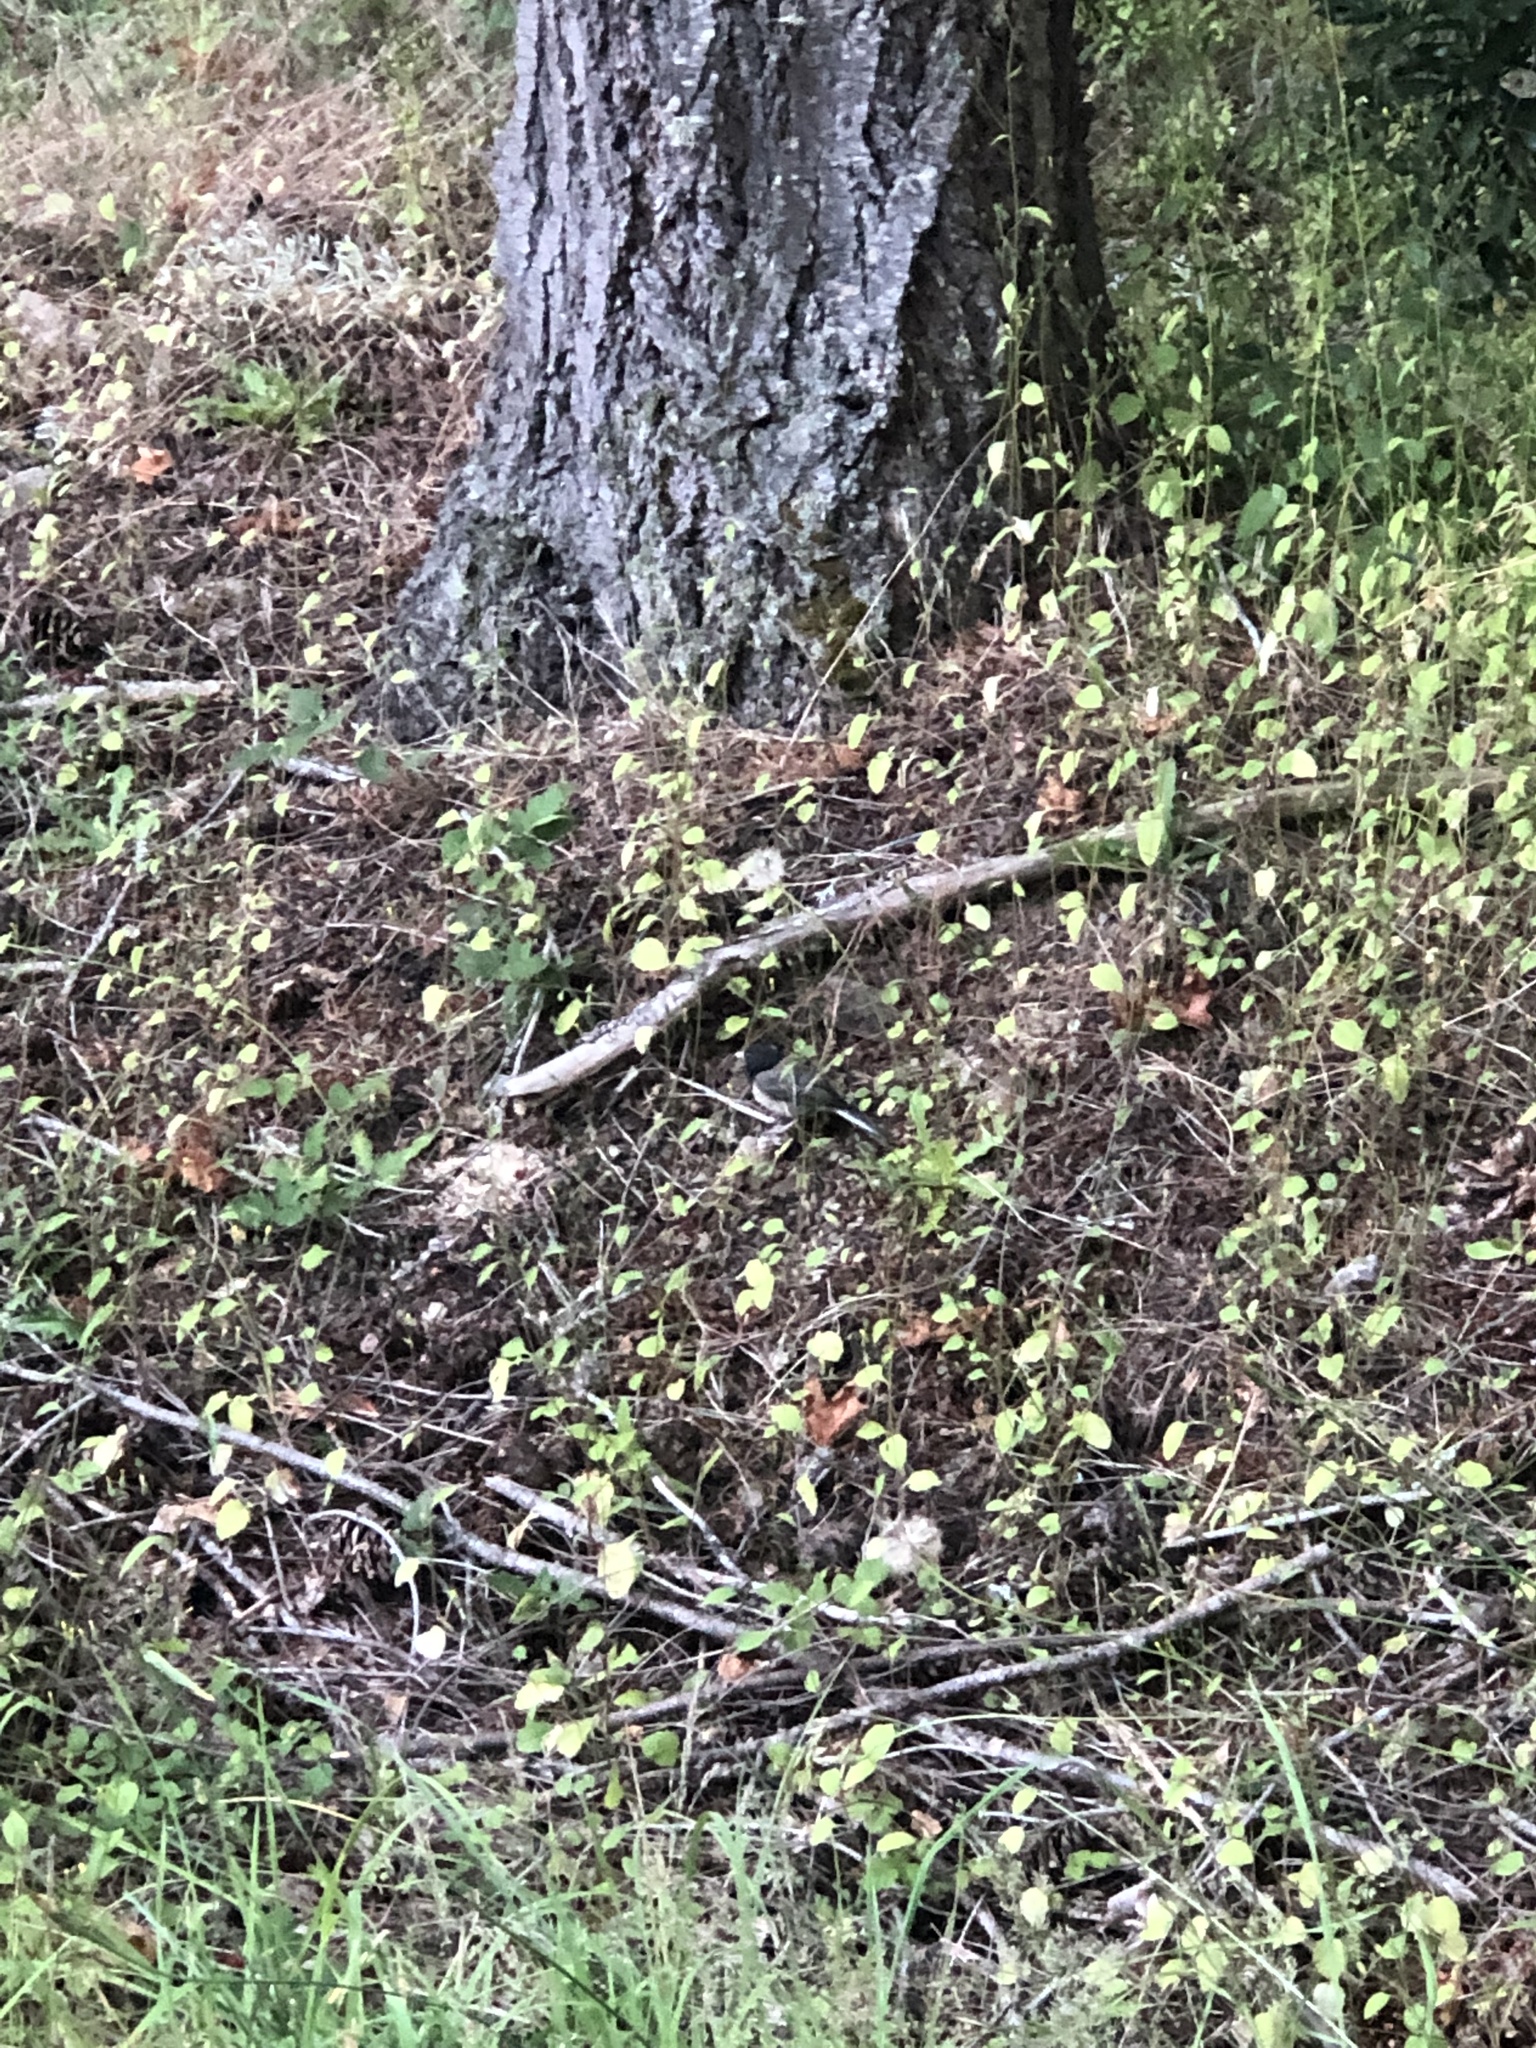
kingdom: Animalia
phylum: Chordata
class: Aves
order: Passeriformes
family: Passerellidae
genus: Junco
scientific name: Junco hyemalis
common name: Dark-eyed junco
